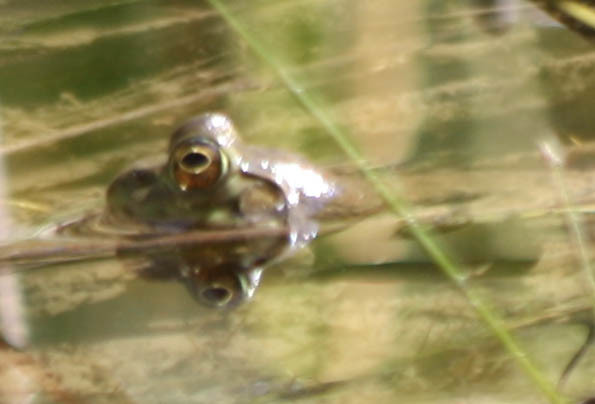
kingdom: Animalia
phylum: Chordata
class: Amphibia
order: Anura
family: Ranidae
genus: Lithobates
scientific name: Lithobates catesbeianus
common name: American bullfrog
